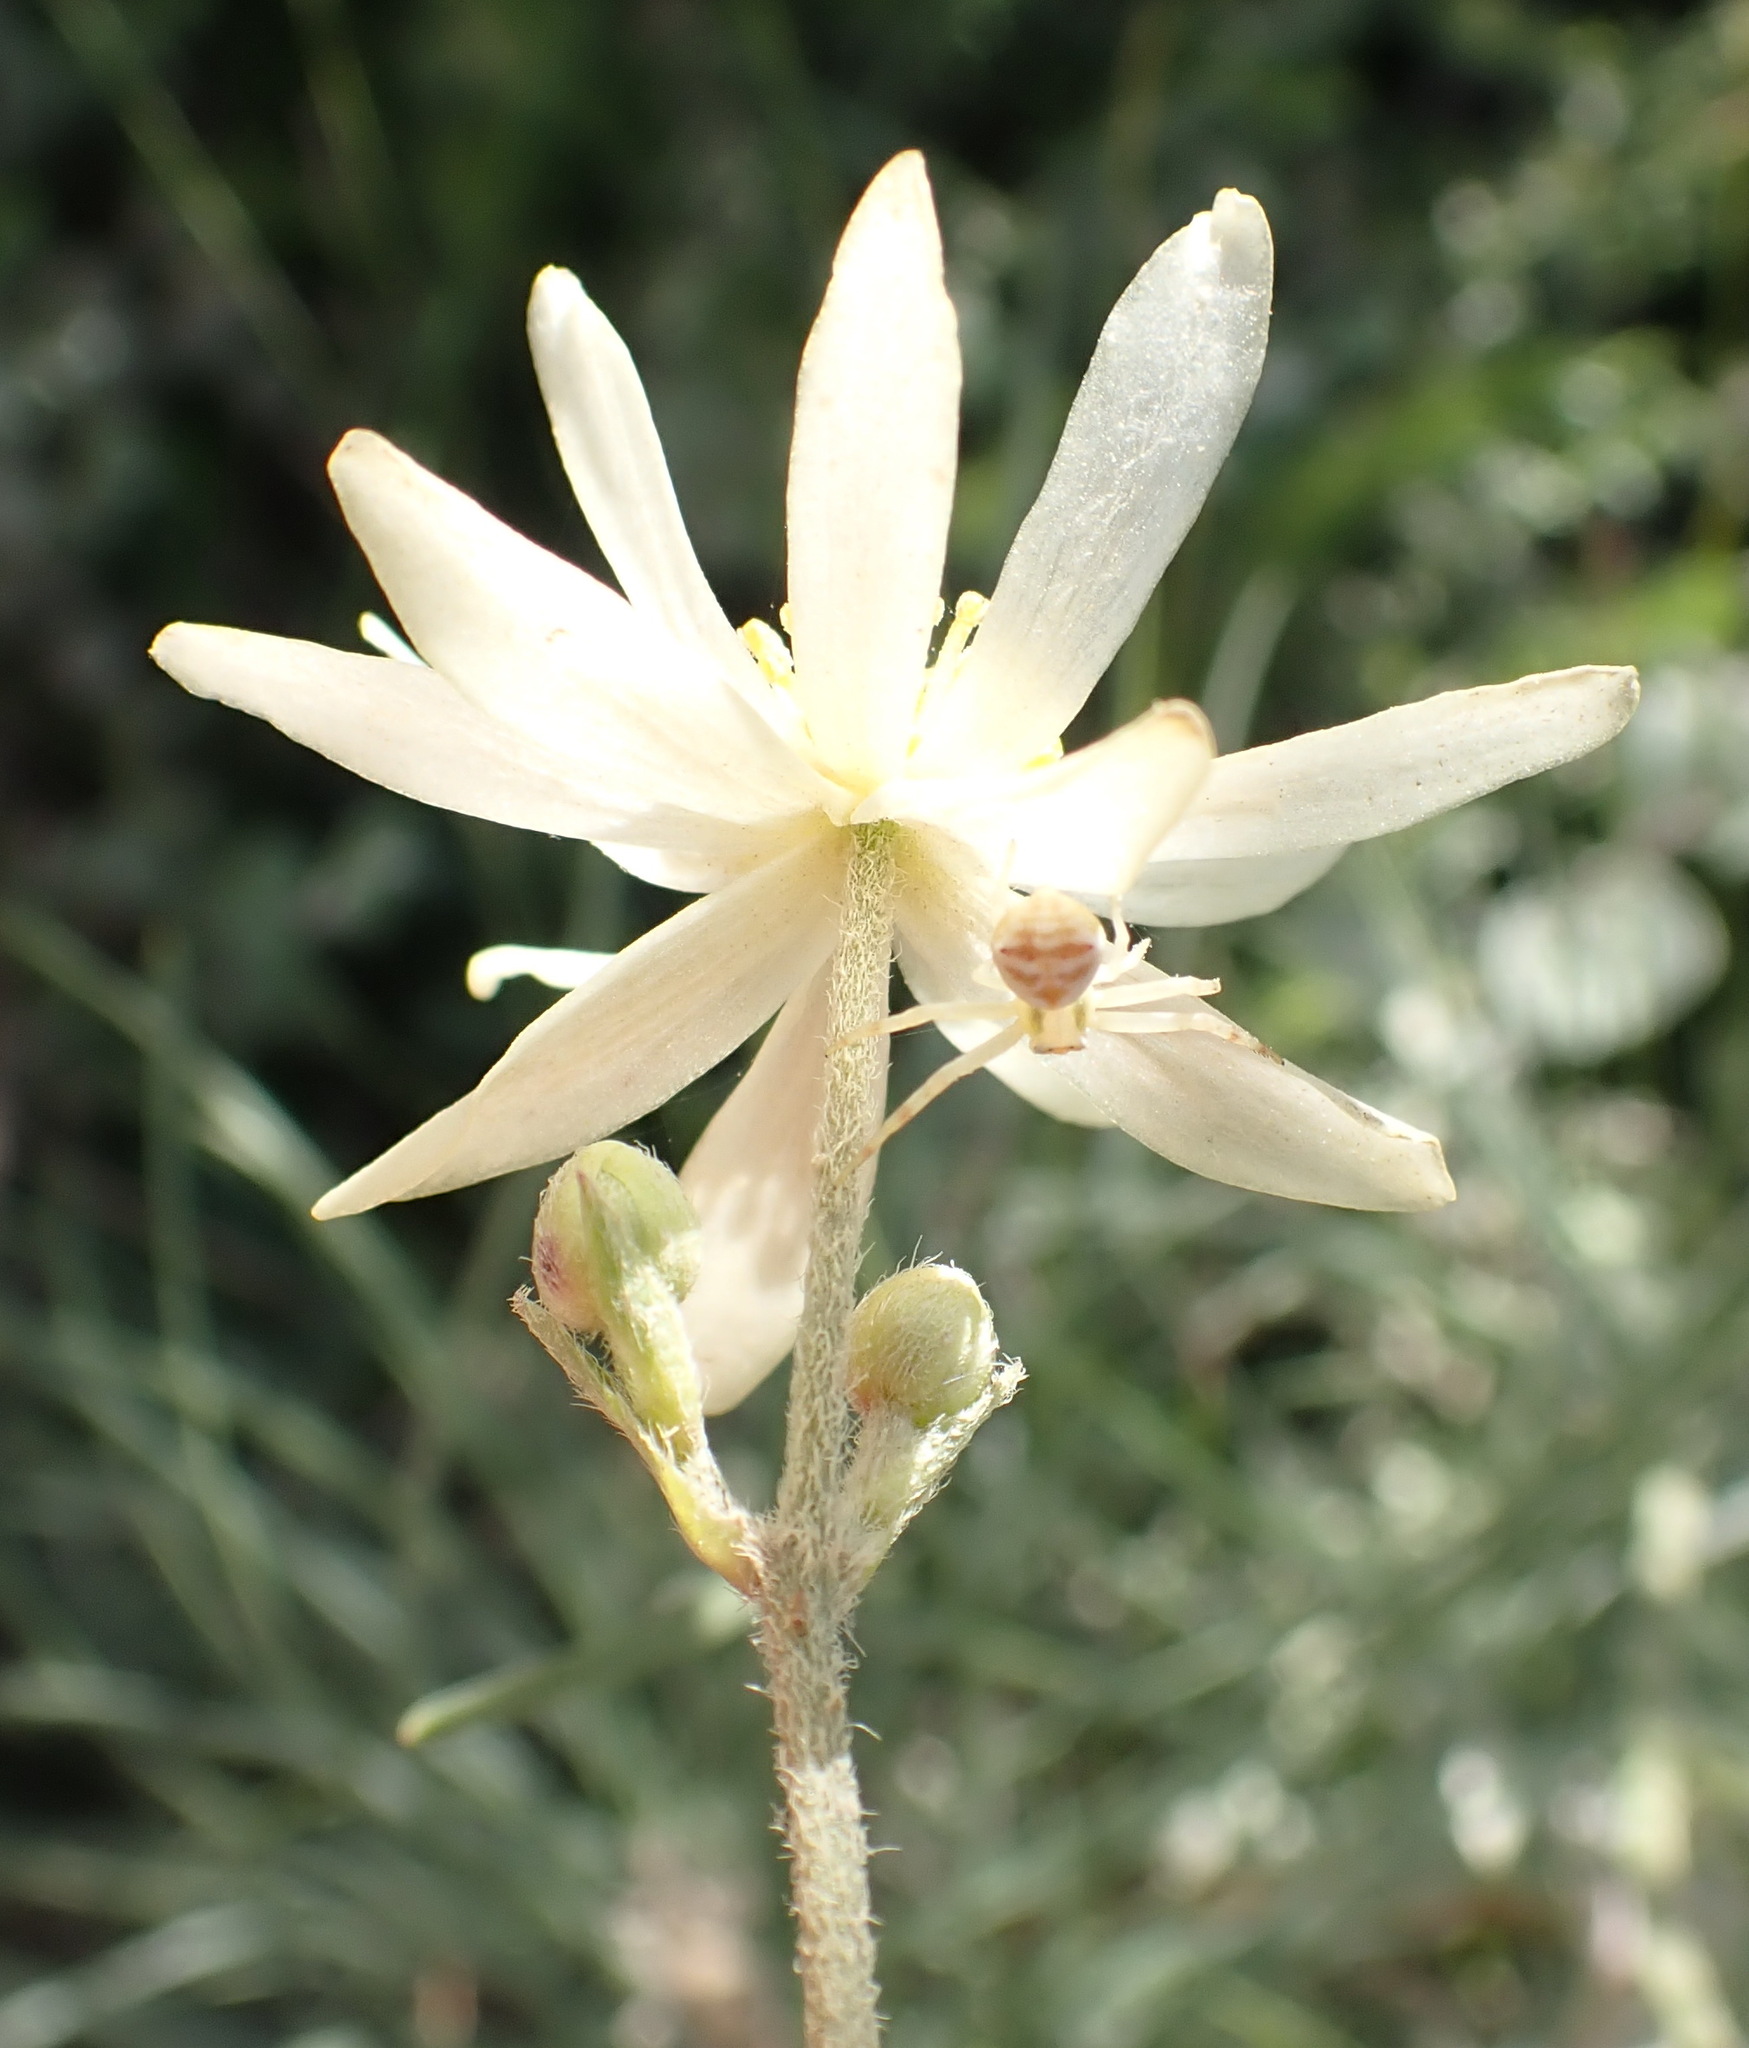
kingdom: Plantae
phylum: Tracheophyta
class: Magnoliopsida
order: Ranunculales
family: Ranunculaceae
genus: Knowltonia
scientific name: Knowltonia filia
